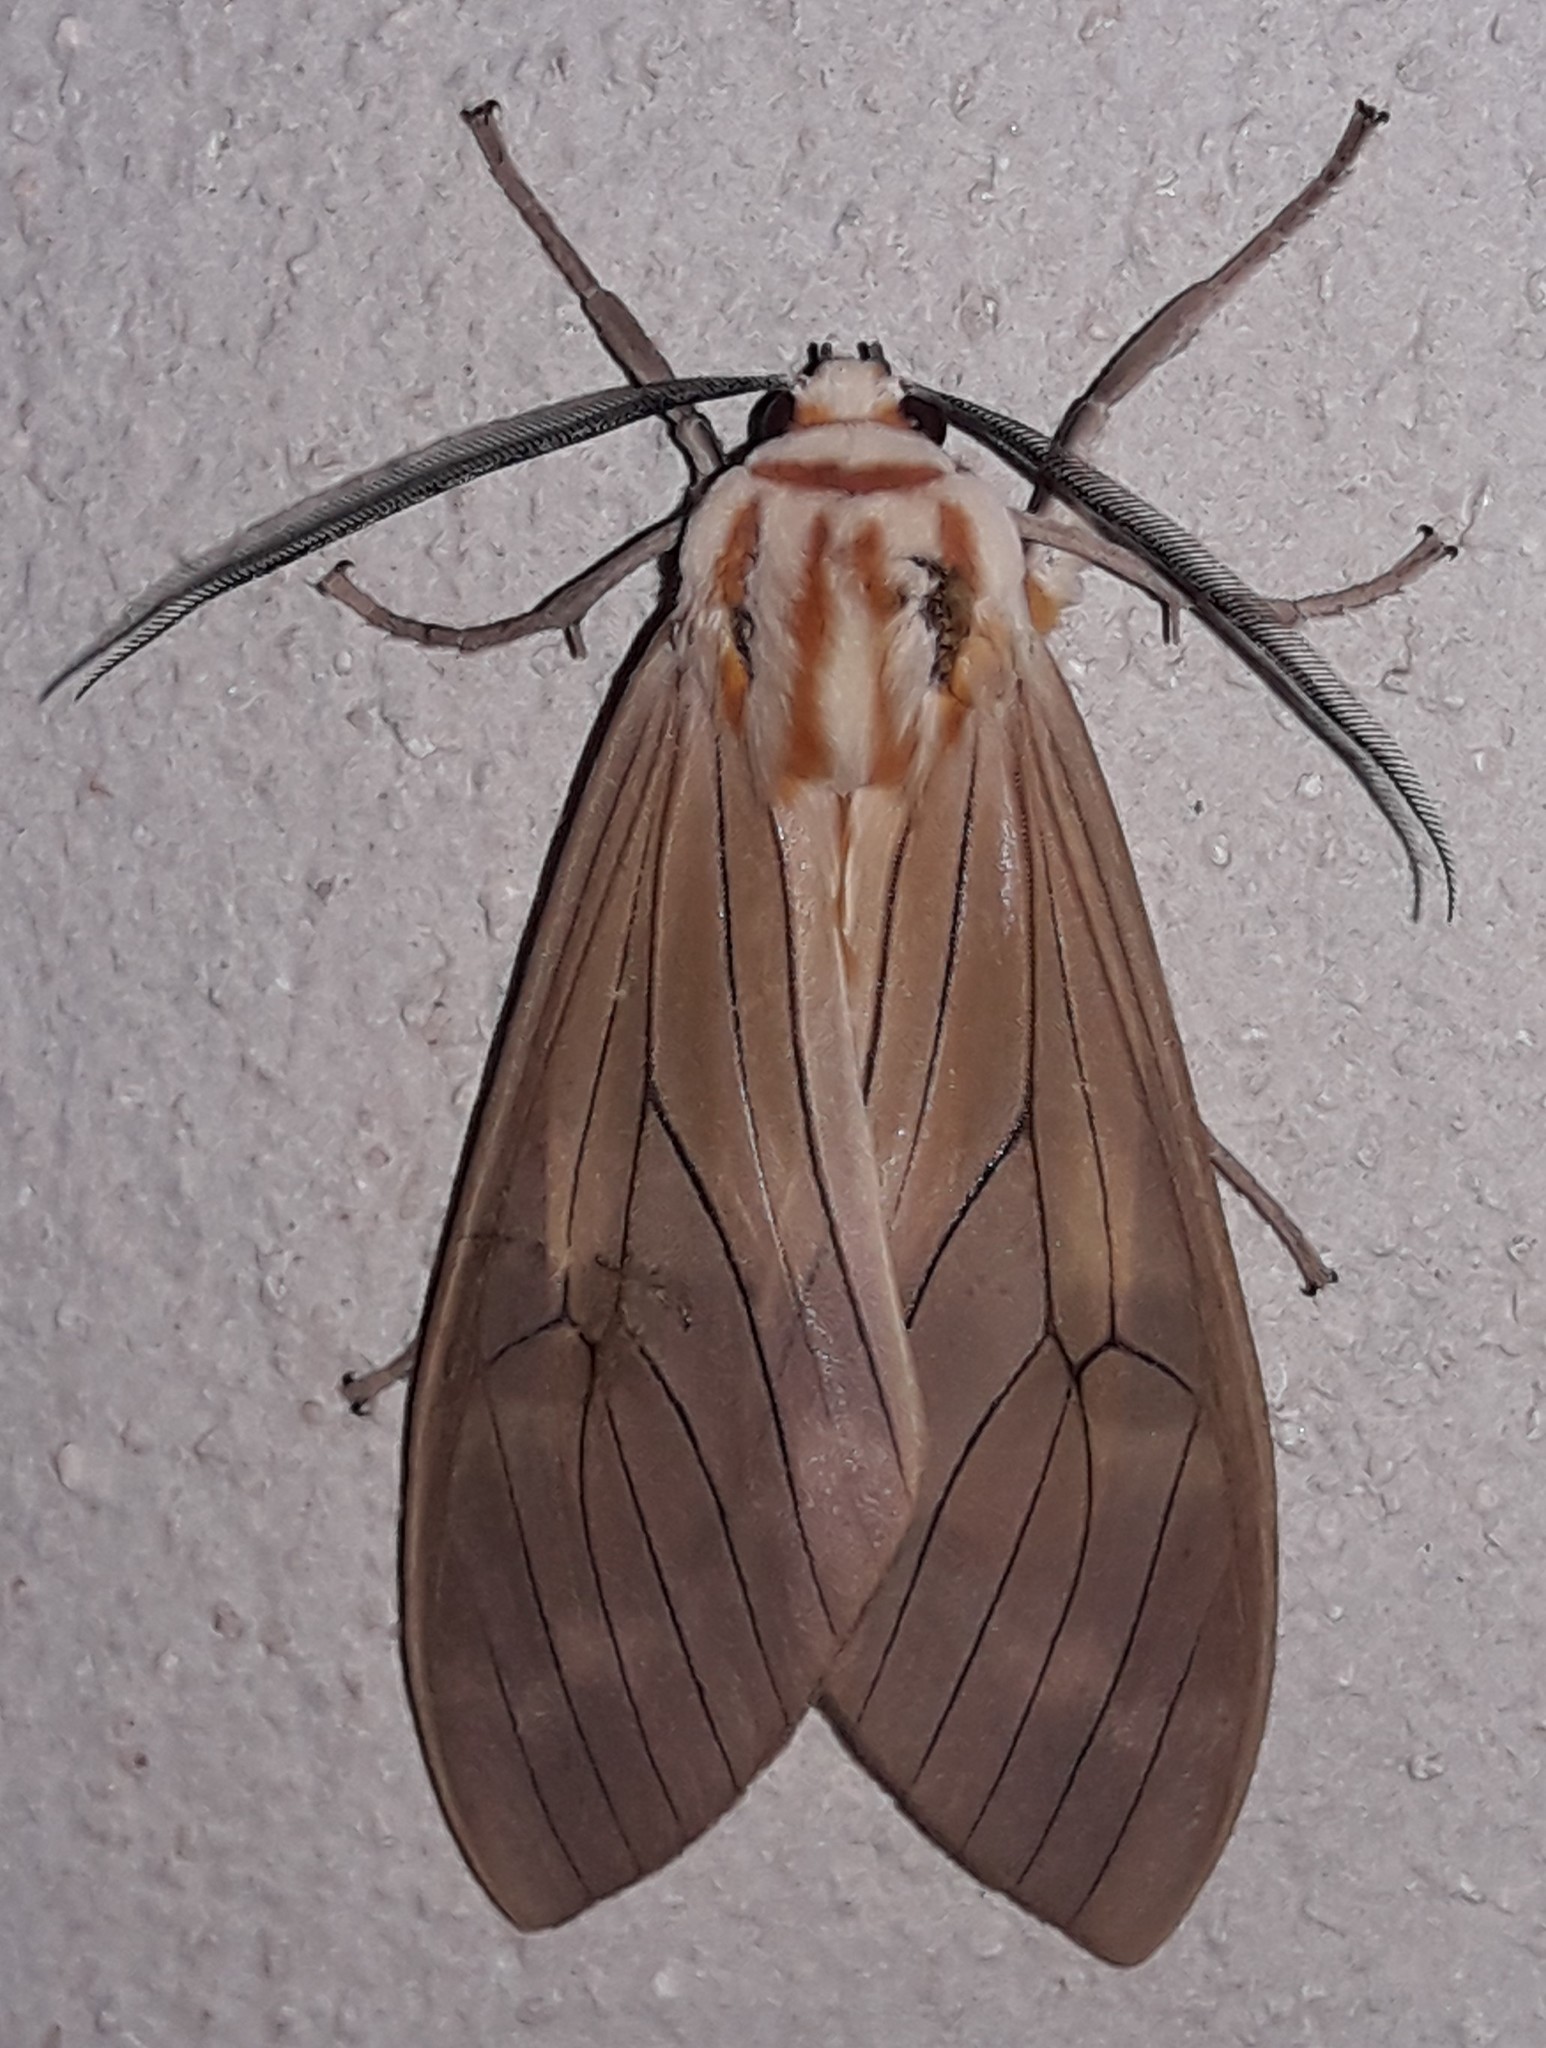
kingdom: Animalia
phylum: Arthropoda
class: Insecta
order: Lepidoptera
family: Erebidae
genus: Amastus
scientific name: Amastus aconia
